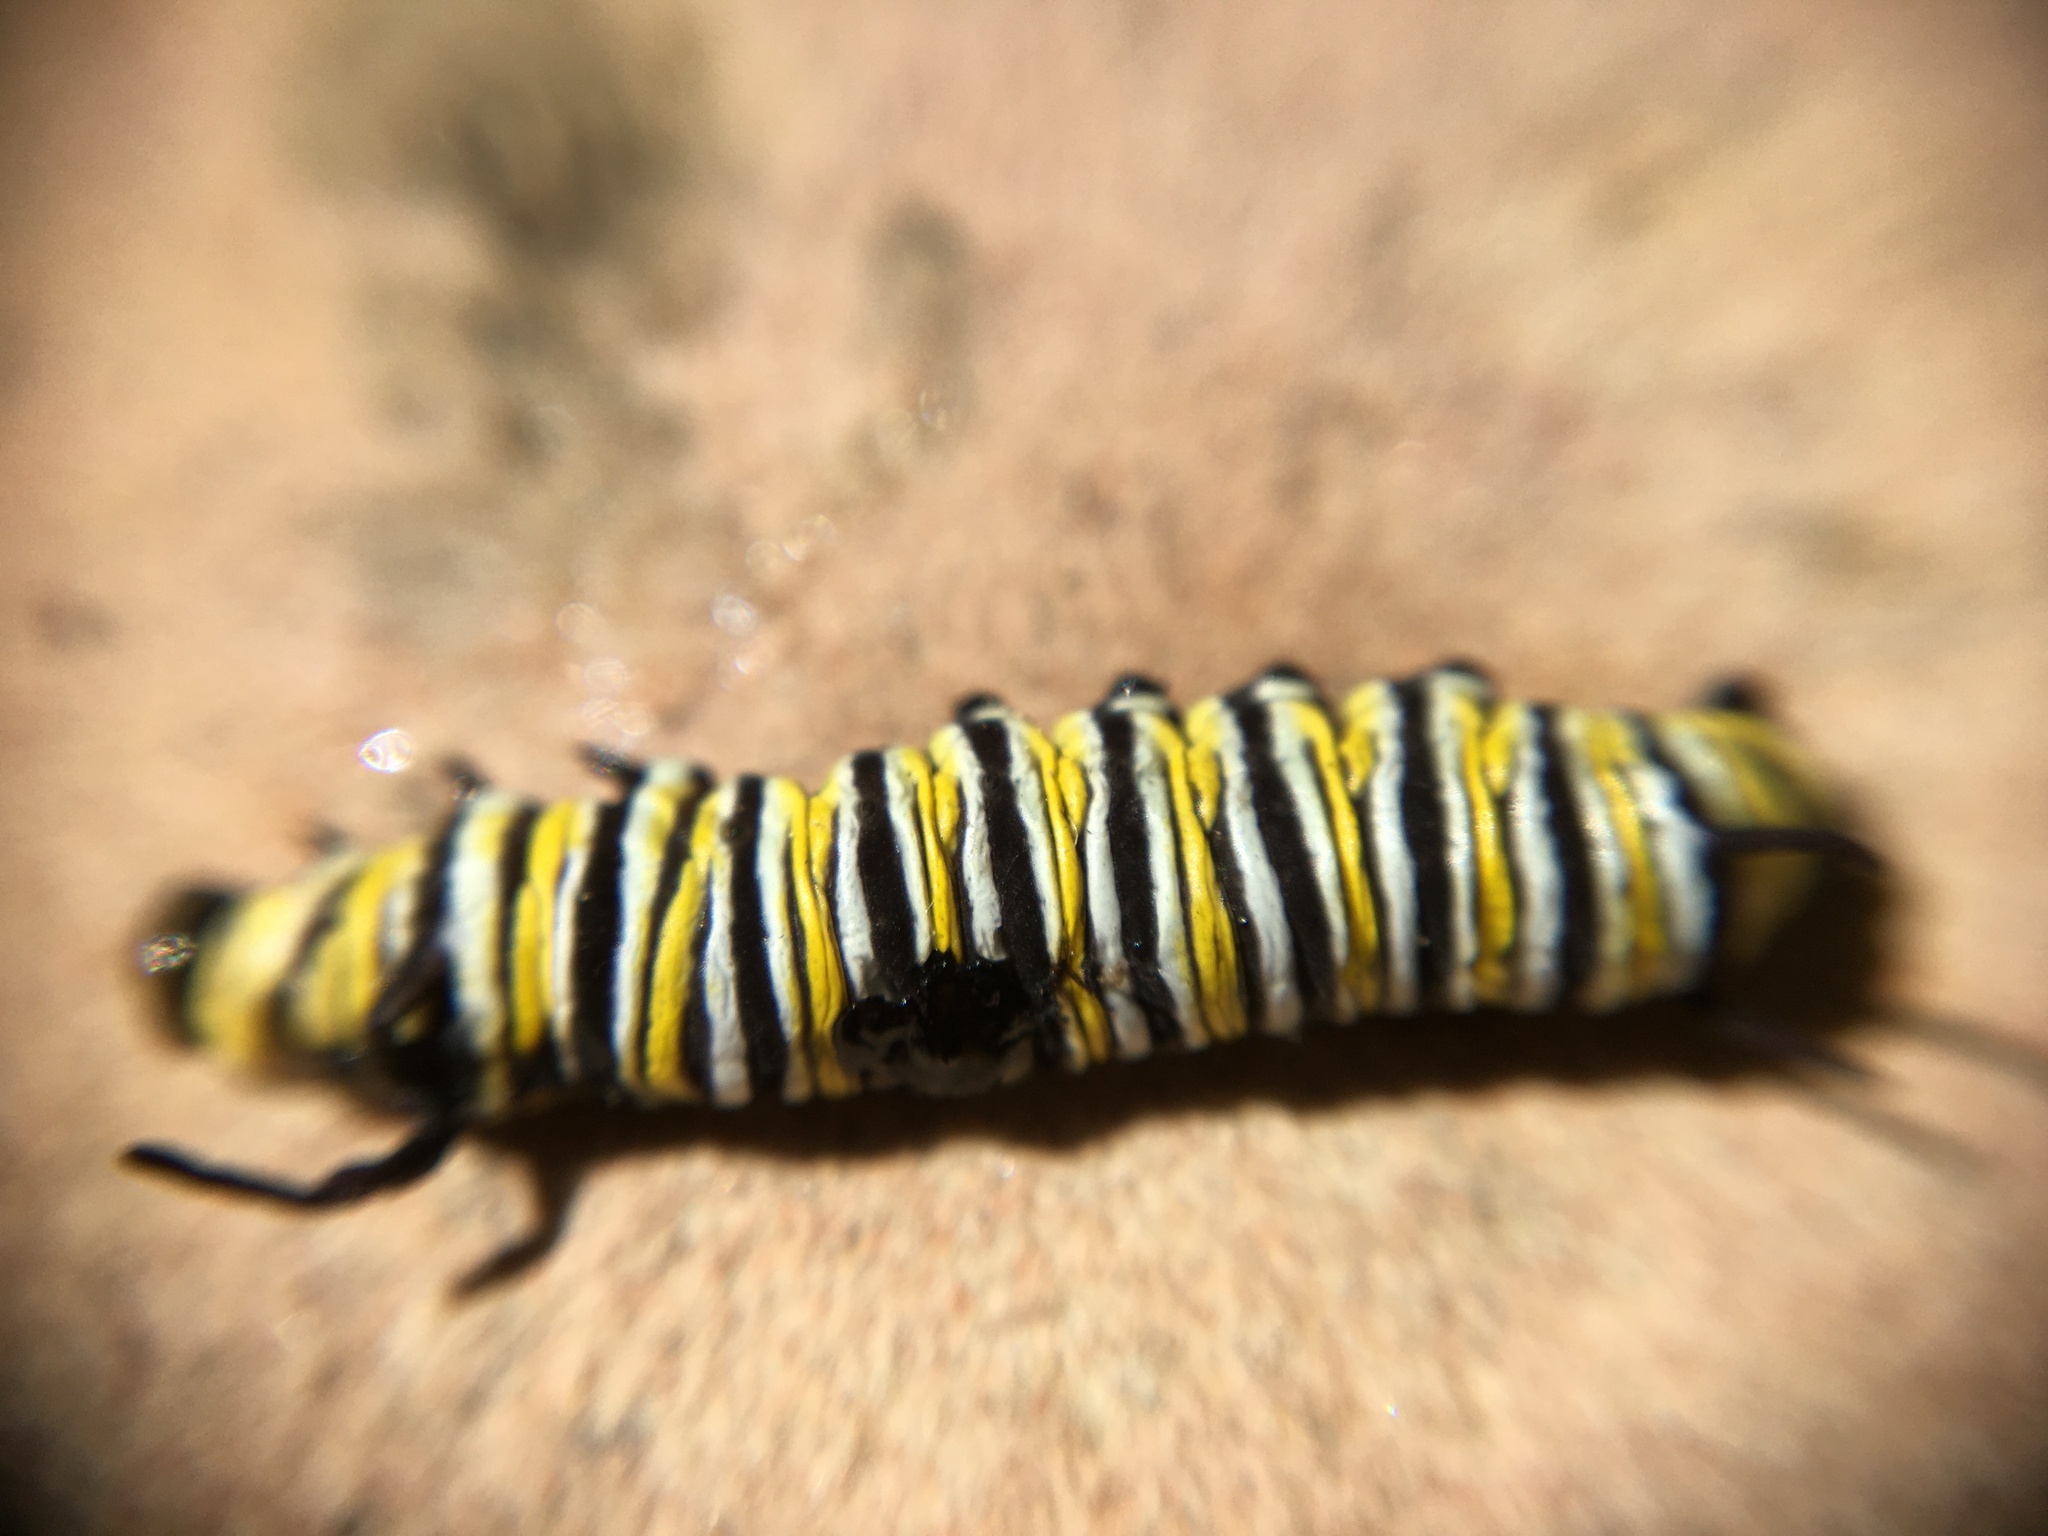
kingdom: Animalia
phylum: Arthropoda
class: Insecta
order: Lepidoptera
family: Nymphalidae
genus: Danaus
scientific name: Danaus plexippus
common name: Monarch
